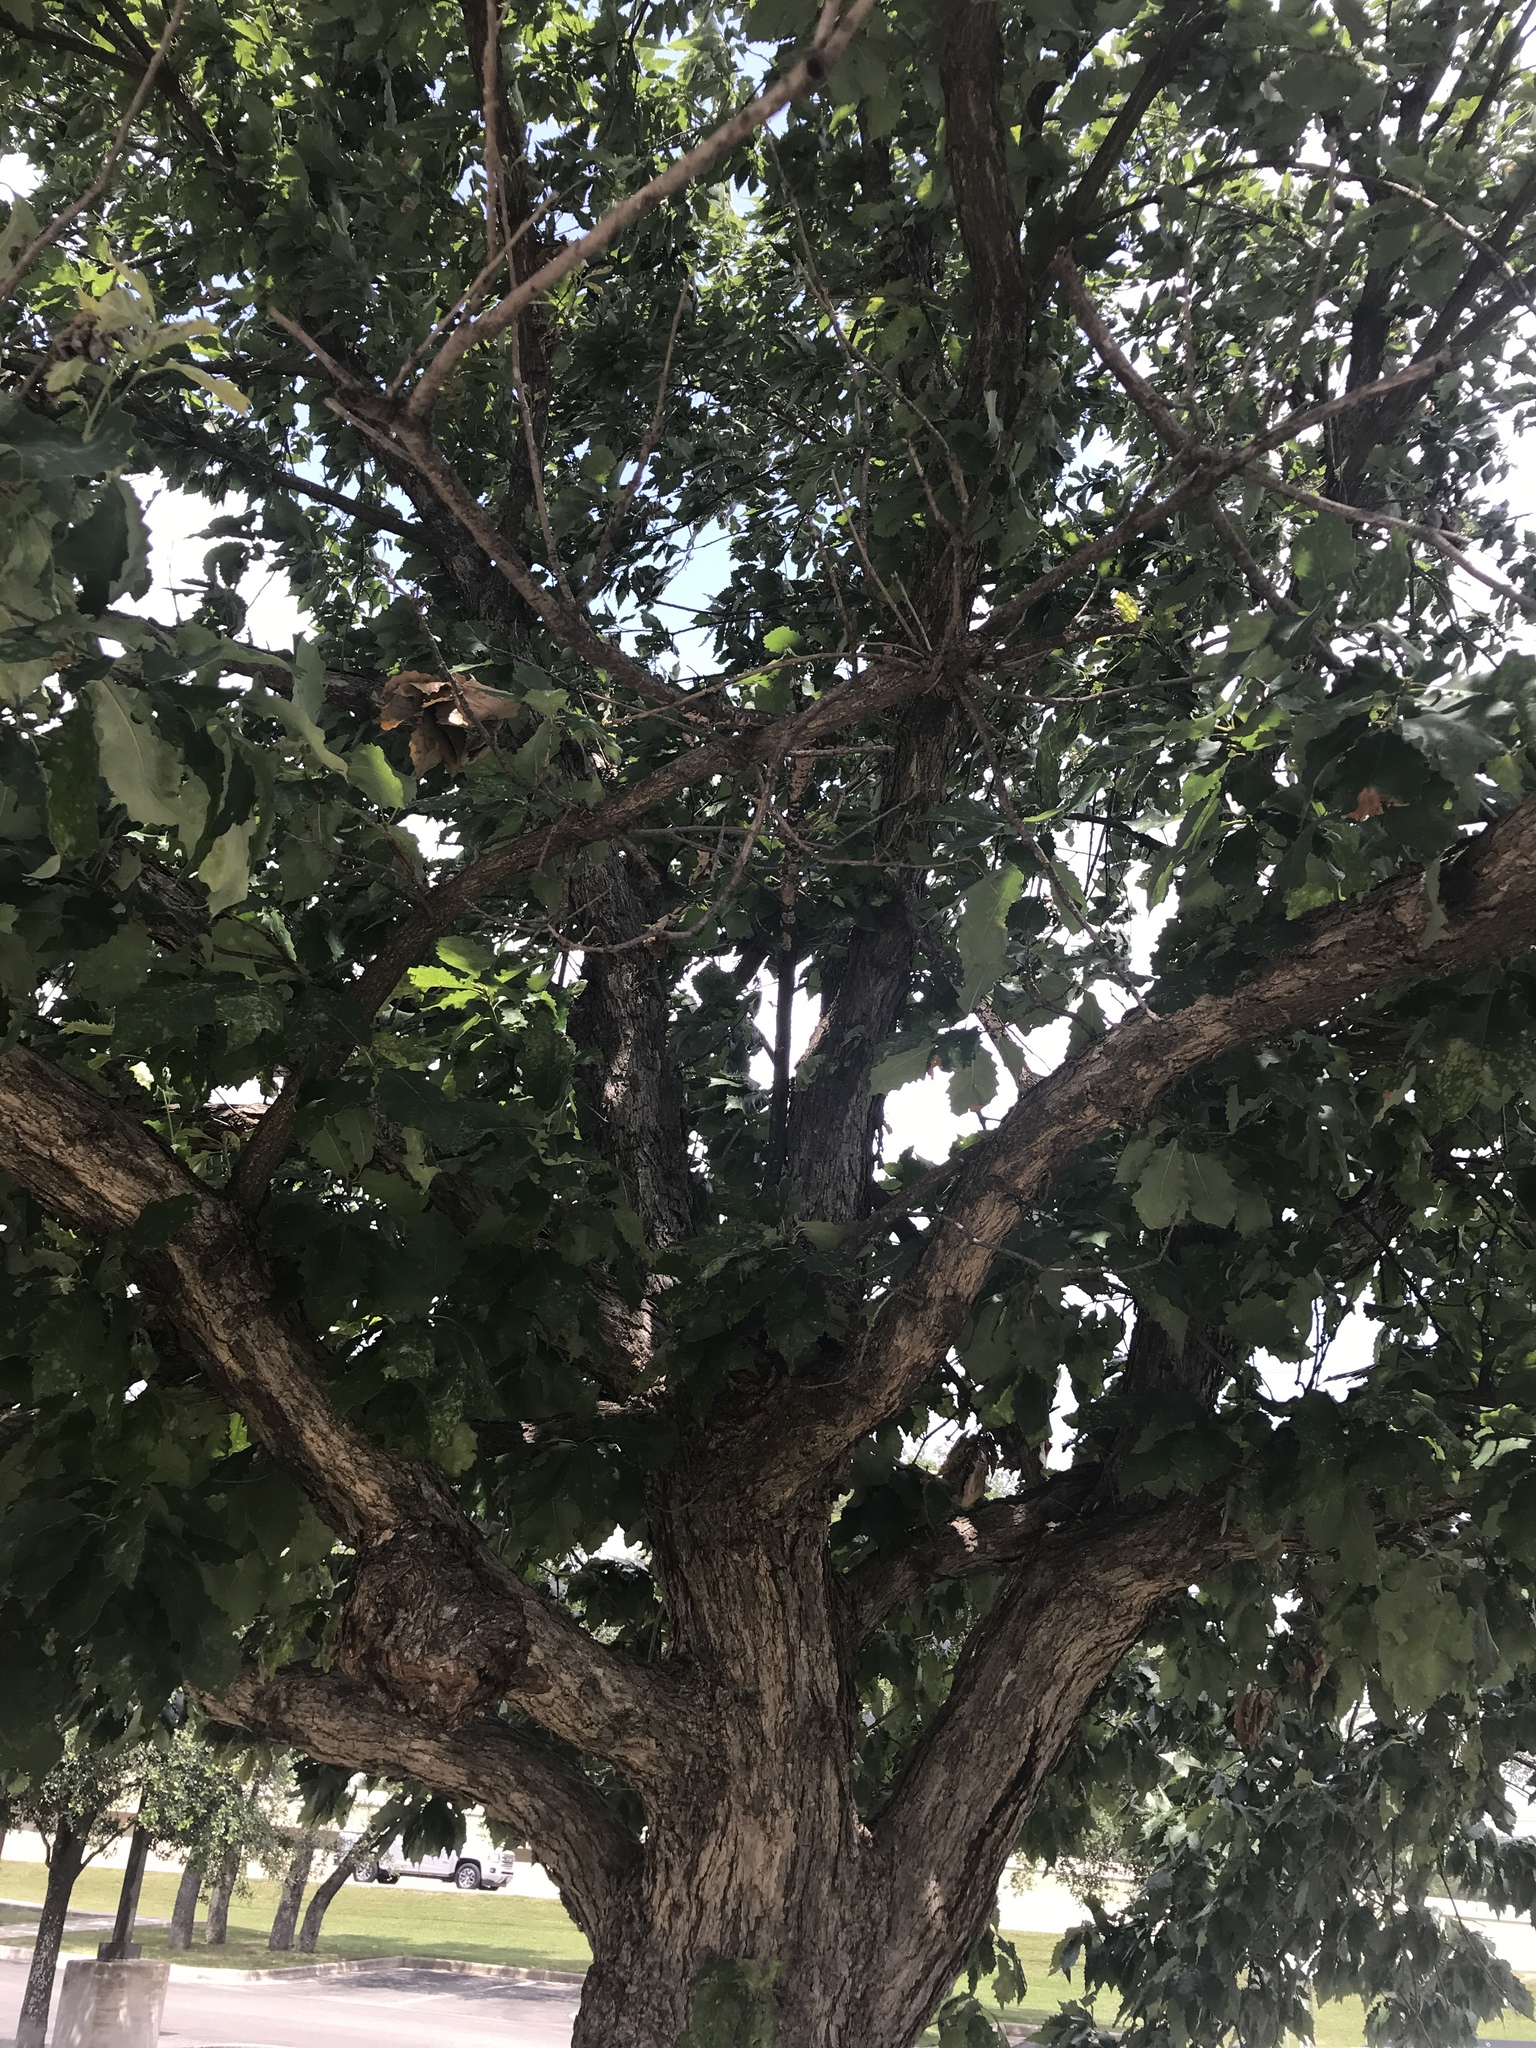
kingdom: Plantae
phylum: Tracheophyta
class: Magnoliopsida
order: Fagales
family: Fagaceae
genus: Quercus
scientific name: Quercus muehlenbergii
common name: Chinkapin oak
